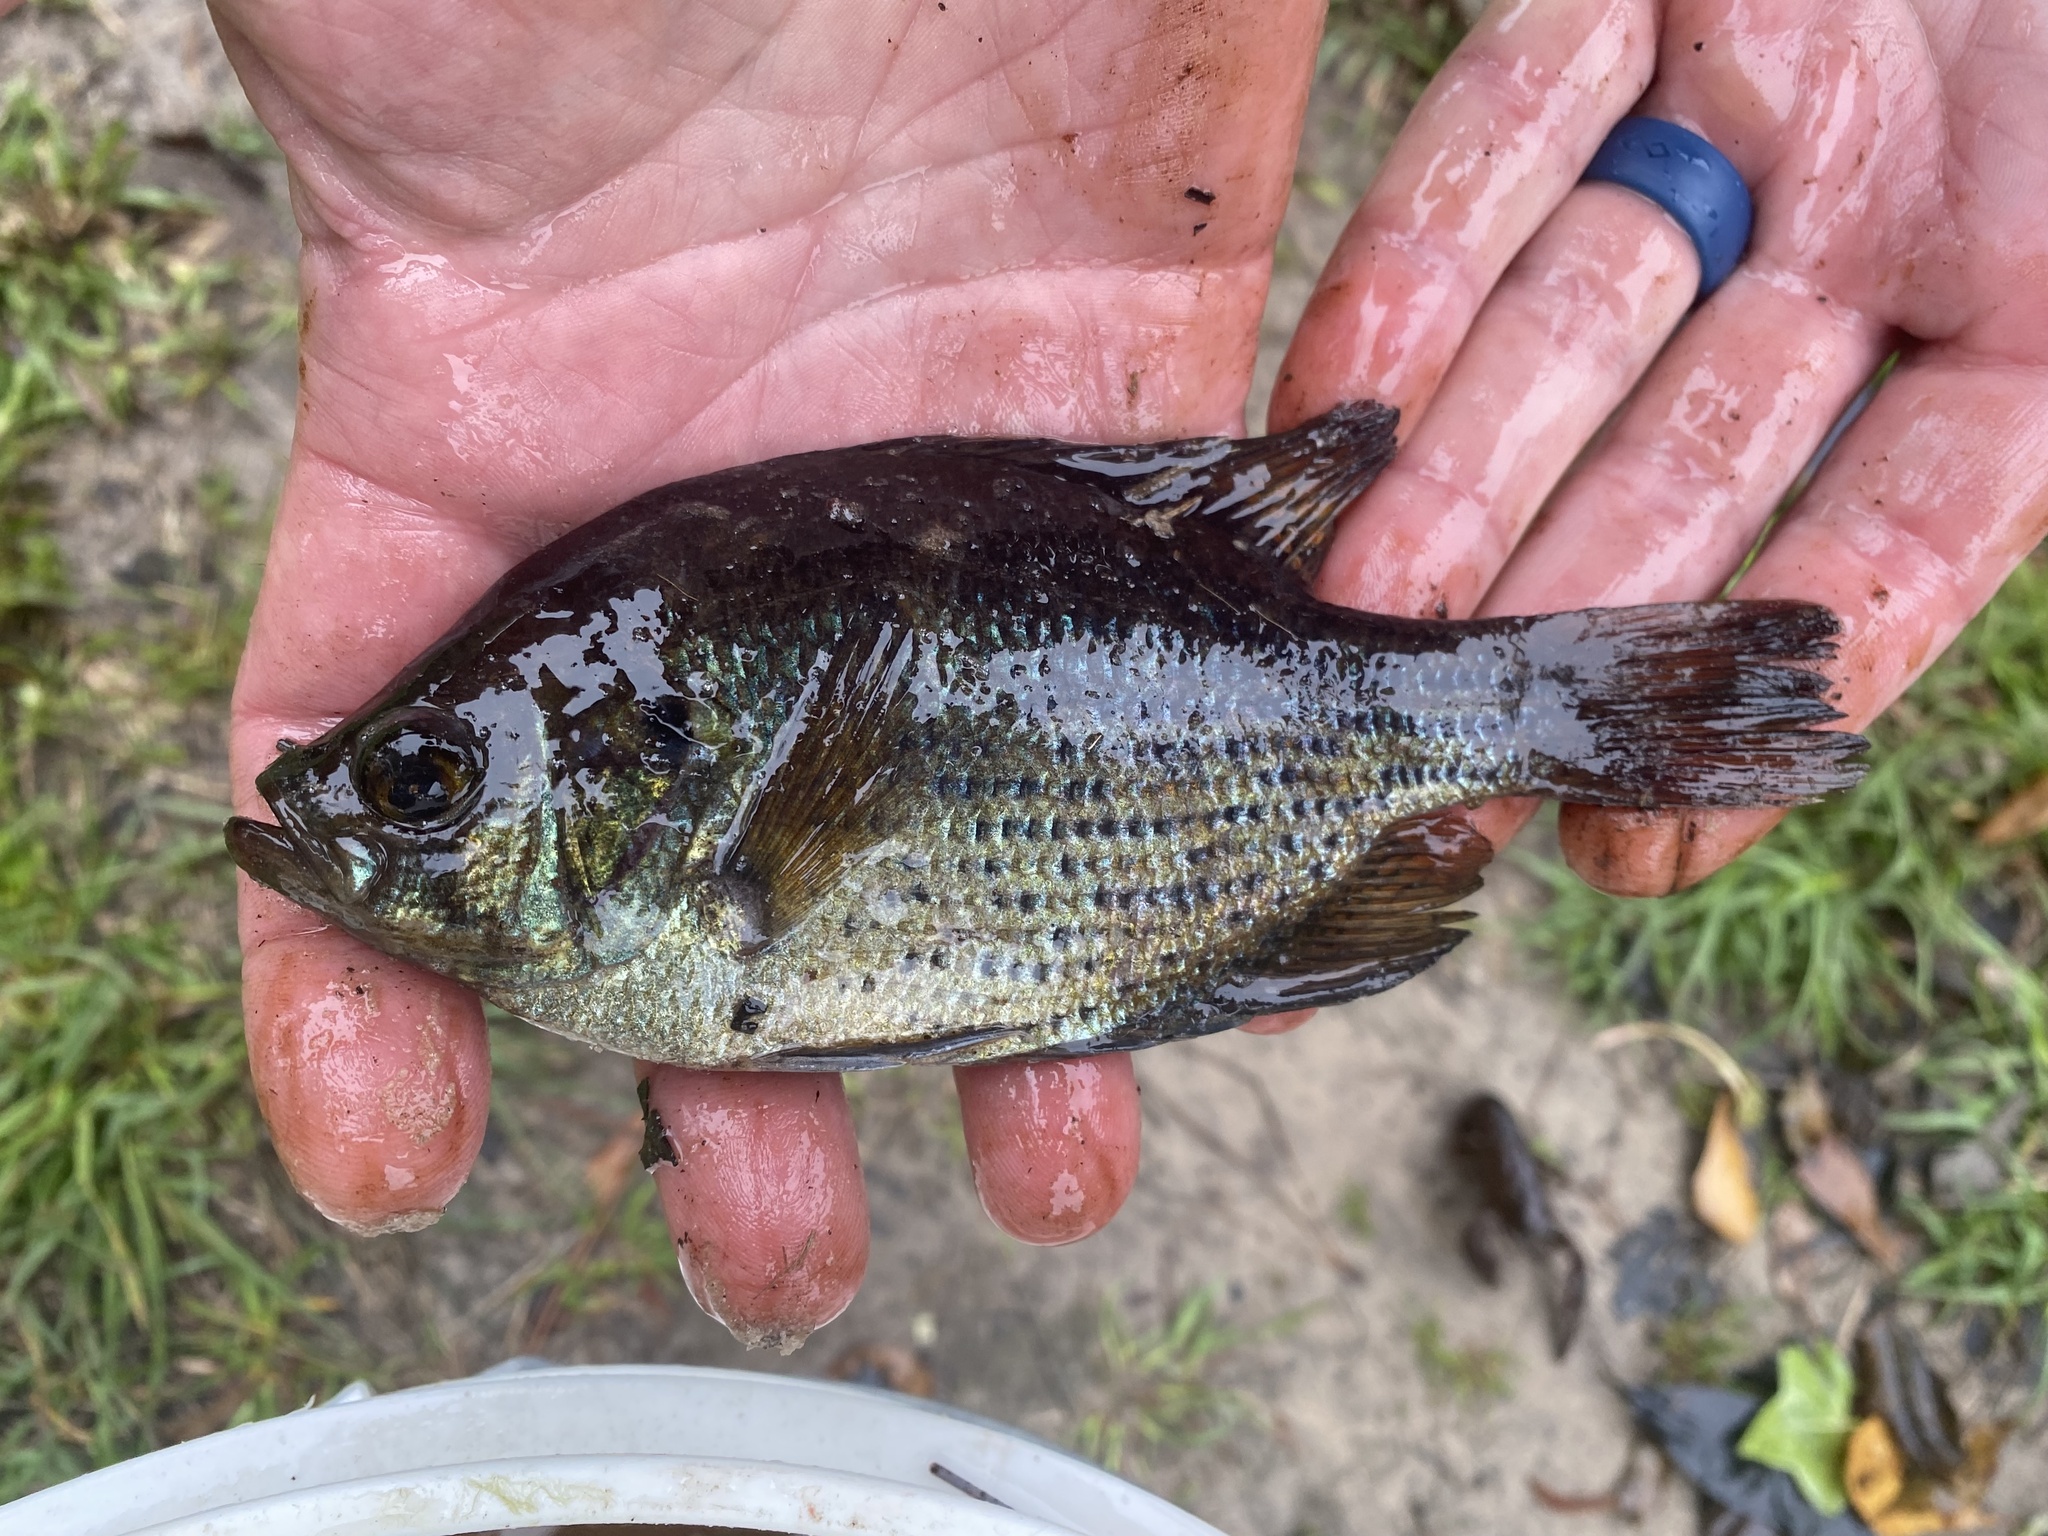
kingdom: Animalia
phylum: Chordata
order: Perciformes
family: Centrarchidae
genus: Centrarchus
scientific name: Centrarchus macropterus
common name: Flier
